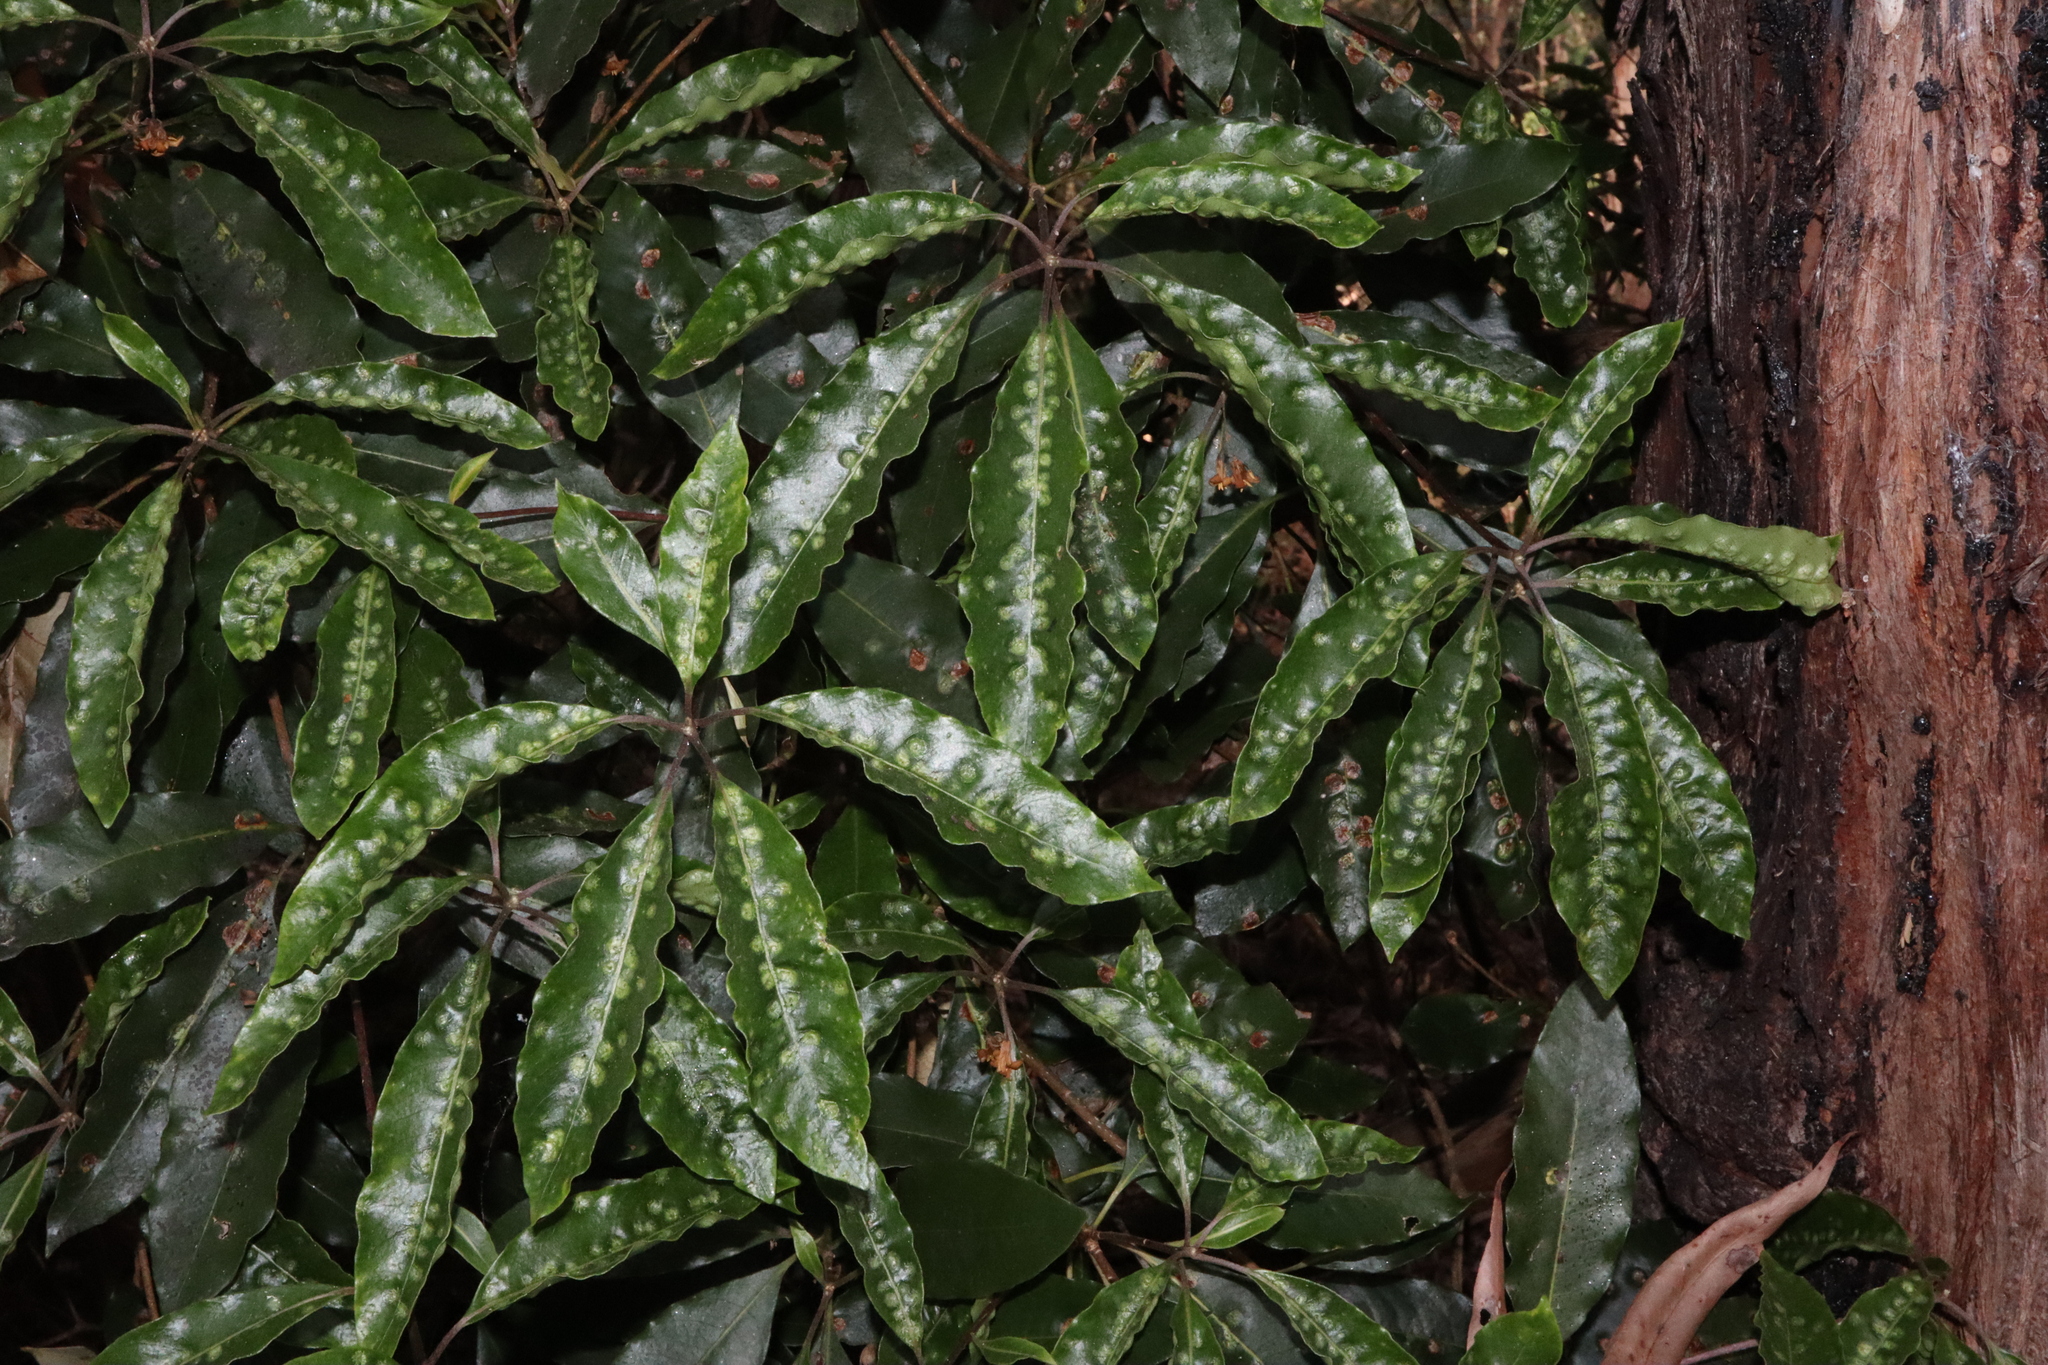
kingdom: Animalia
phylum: Arthropoda
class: Insecta
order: Diptera
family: Agromyzidae
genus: Phytoliriomyza
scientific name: Phytoliriomyza pittosporophylli
